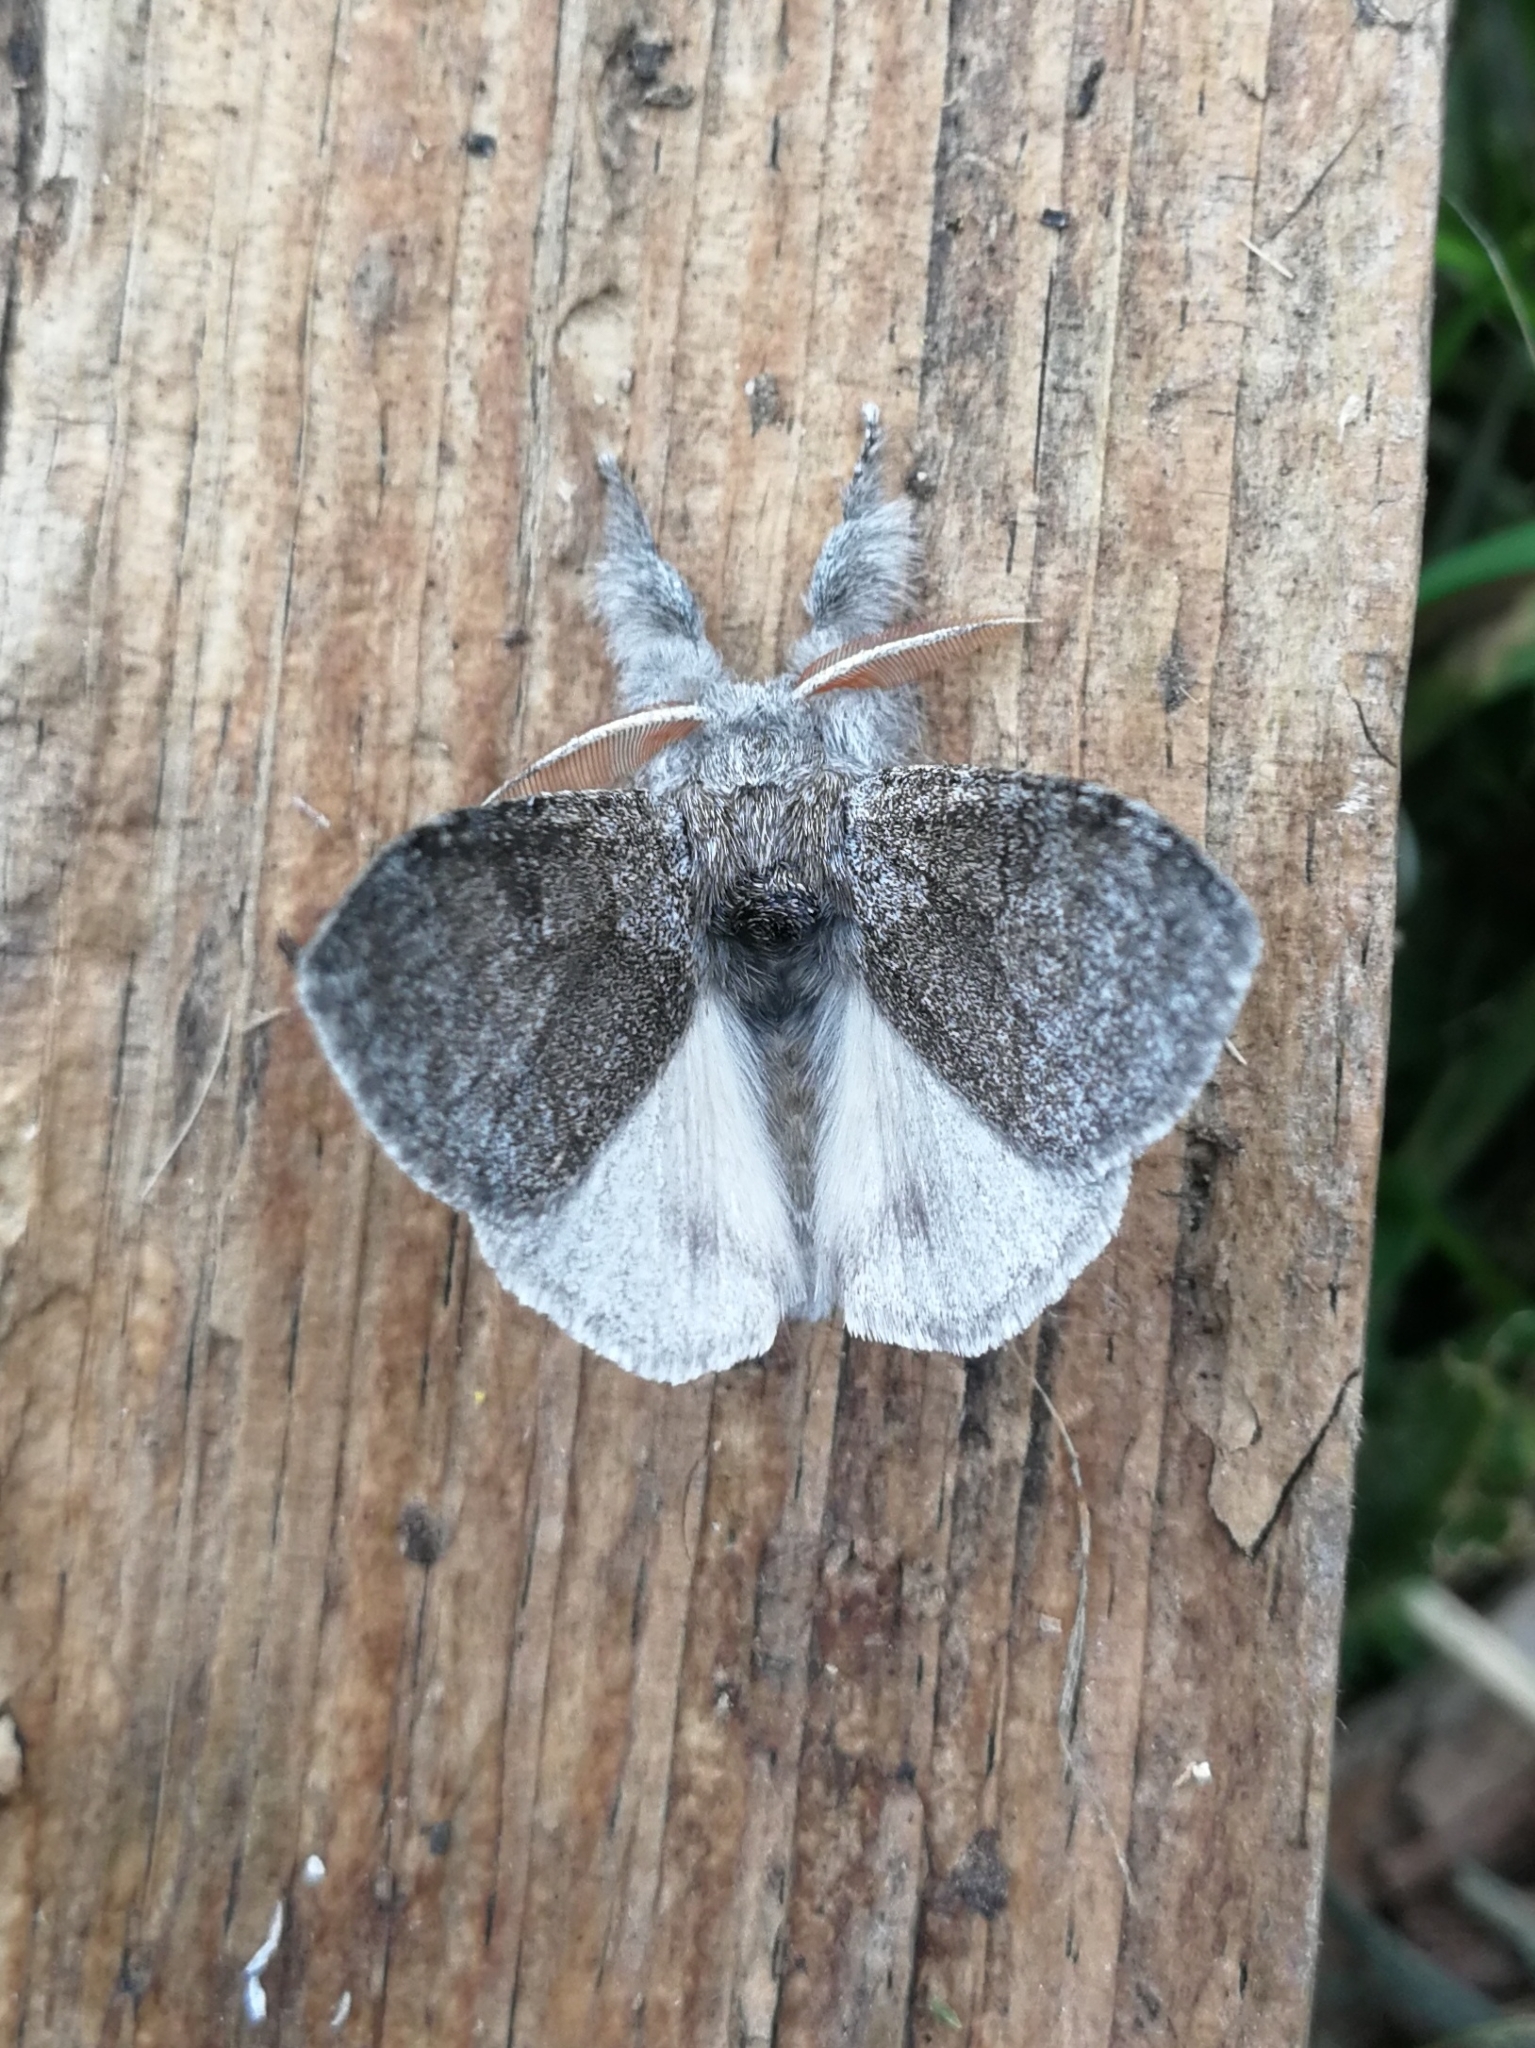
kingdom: Animalia
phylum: Arthropoda
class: Insecta
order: Lepidoptera
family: Erebidae
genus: Calliteara
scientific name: Calliteara pudibunda
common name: Pale tussock
